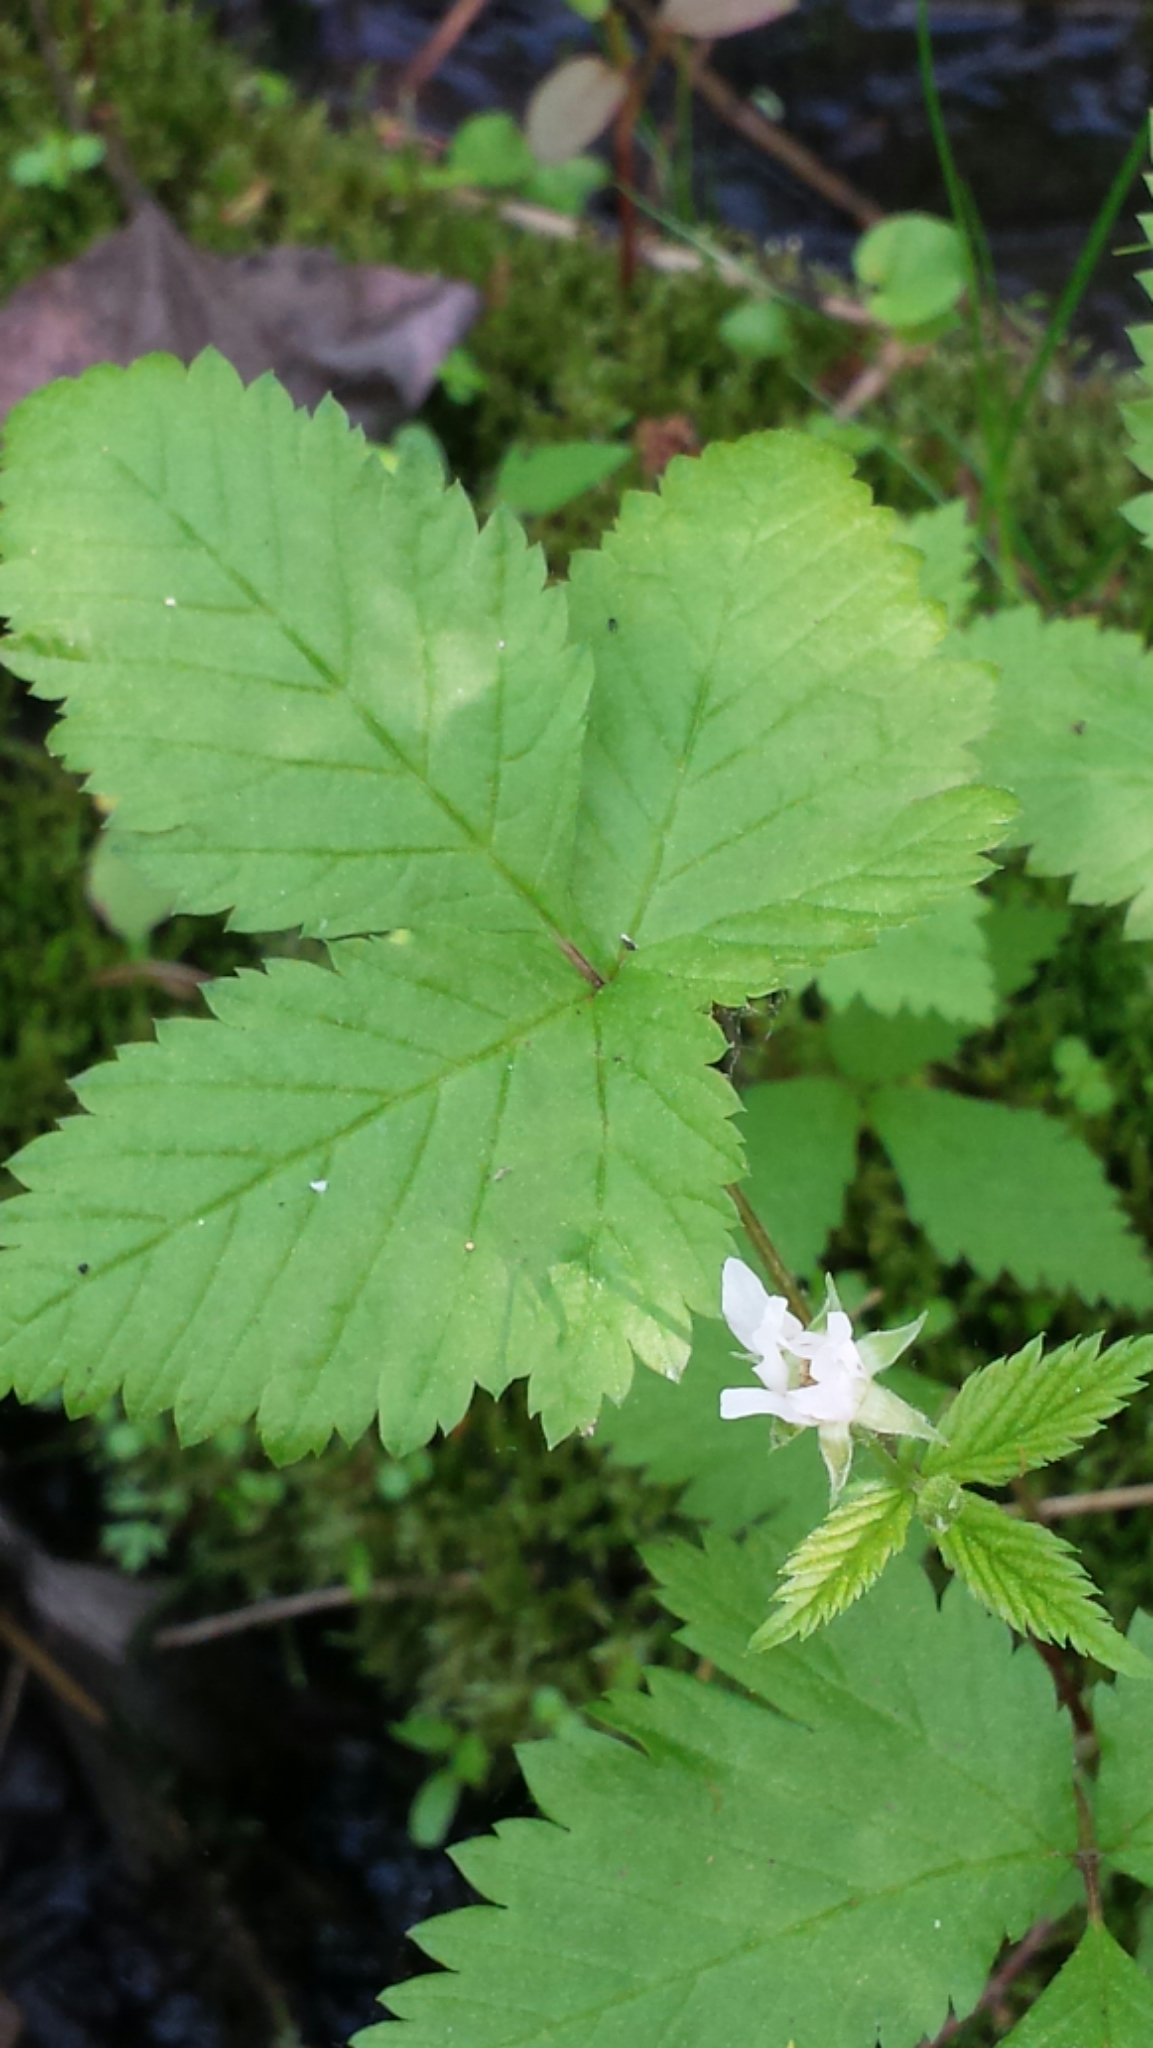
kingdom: Plantae
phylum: Tracheophyta
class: Magnoliopsida
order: Rosales
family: Rosaceae
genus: Rubus
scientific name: Rubus pubescens
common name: Dwarf raspberry
